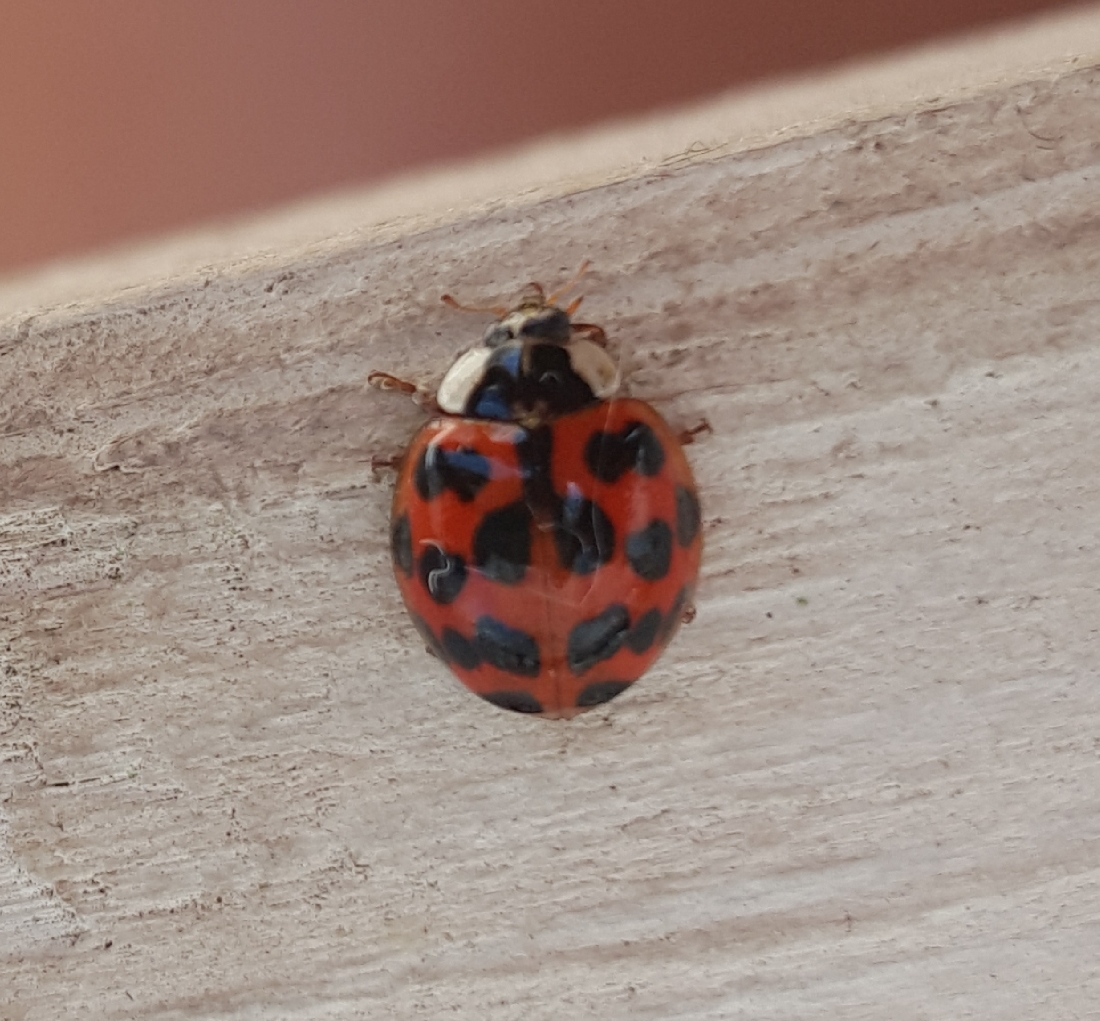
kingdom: Animalia
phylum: Arthropoda
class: Insecta
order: Coleoptera
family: Coccinellidae
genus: Harmonia
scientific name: Harmonia axyridis
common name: Harlequin ladybird
